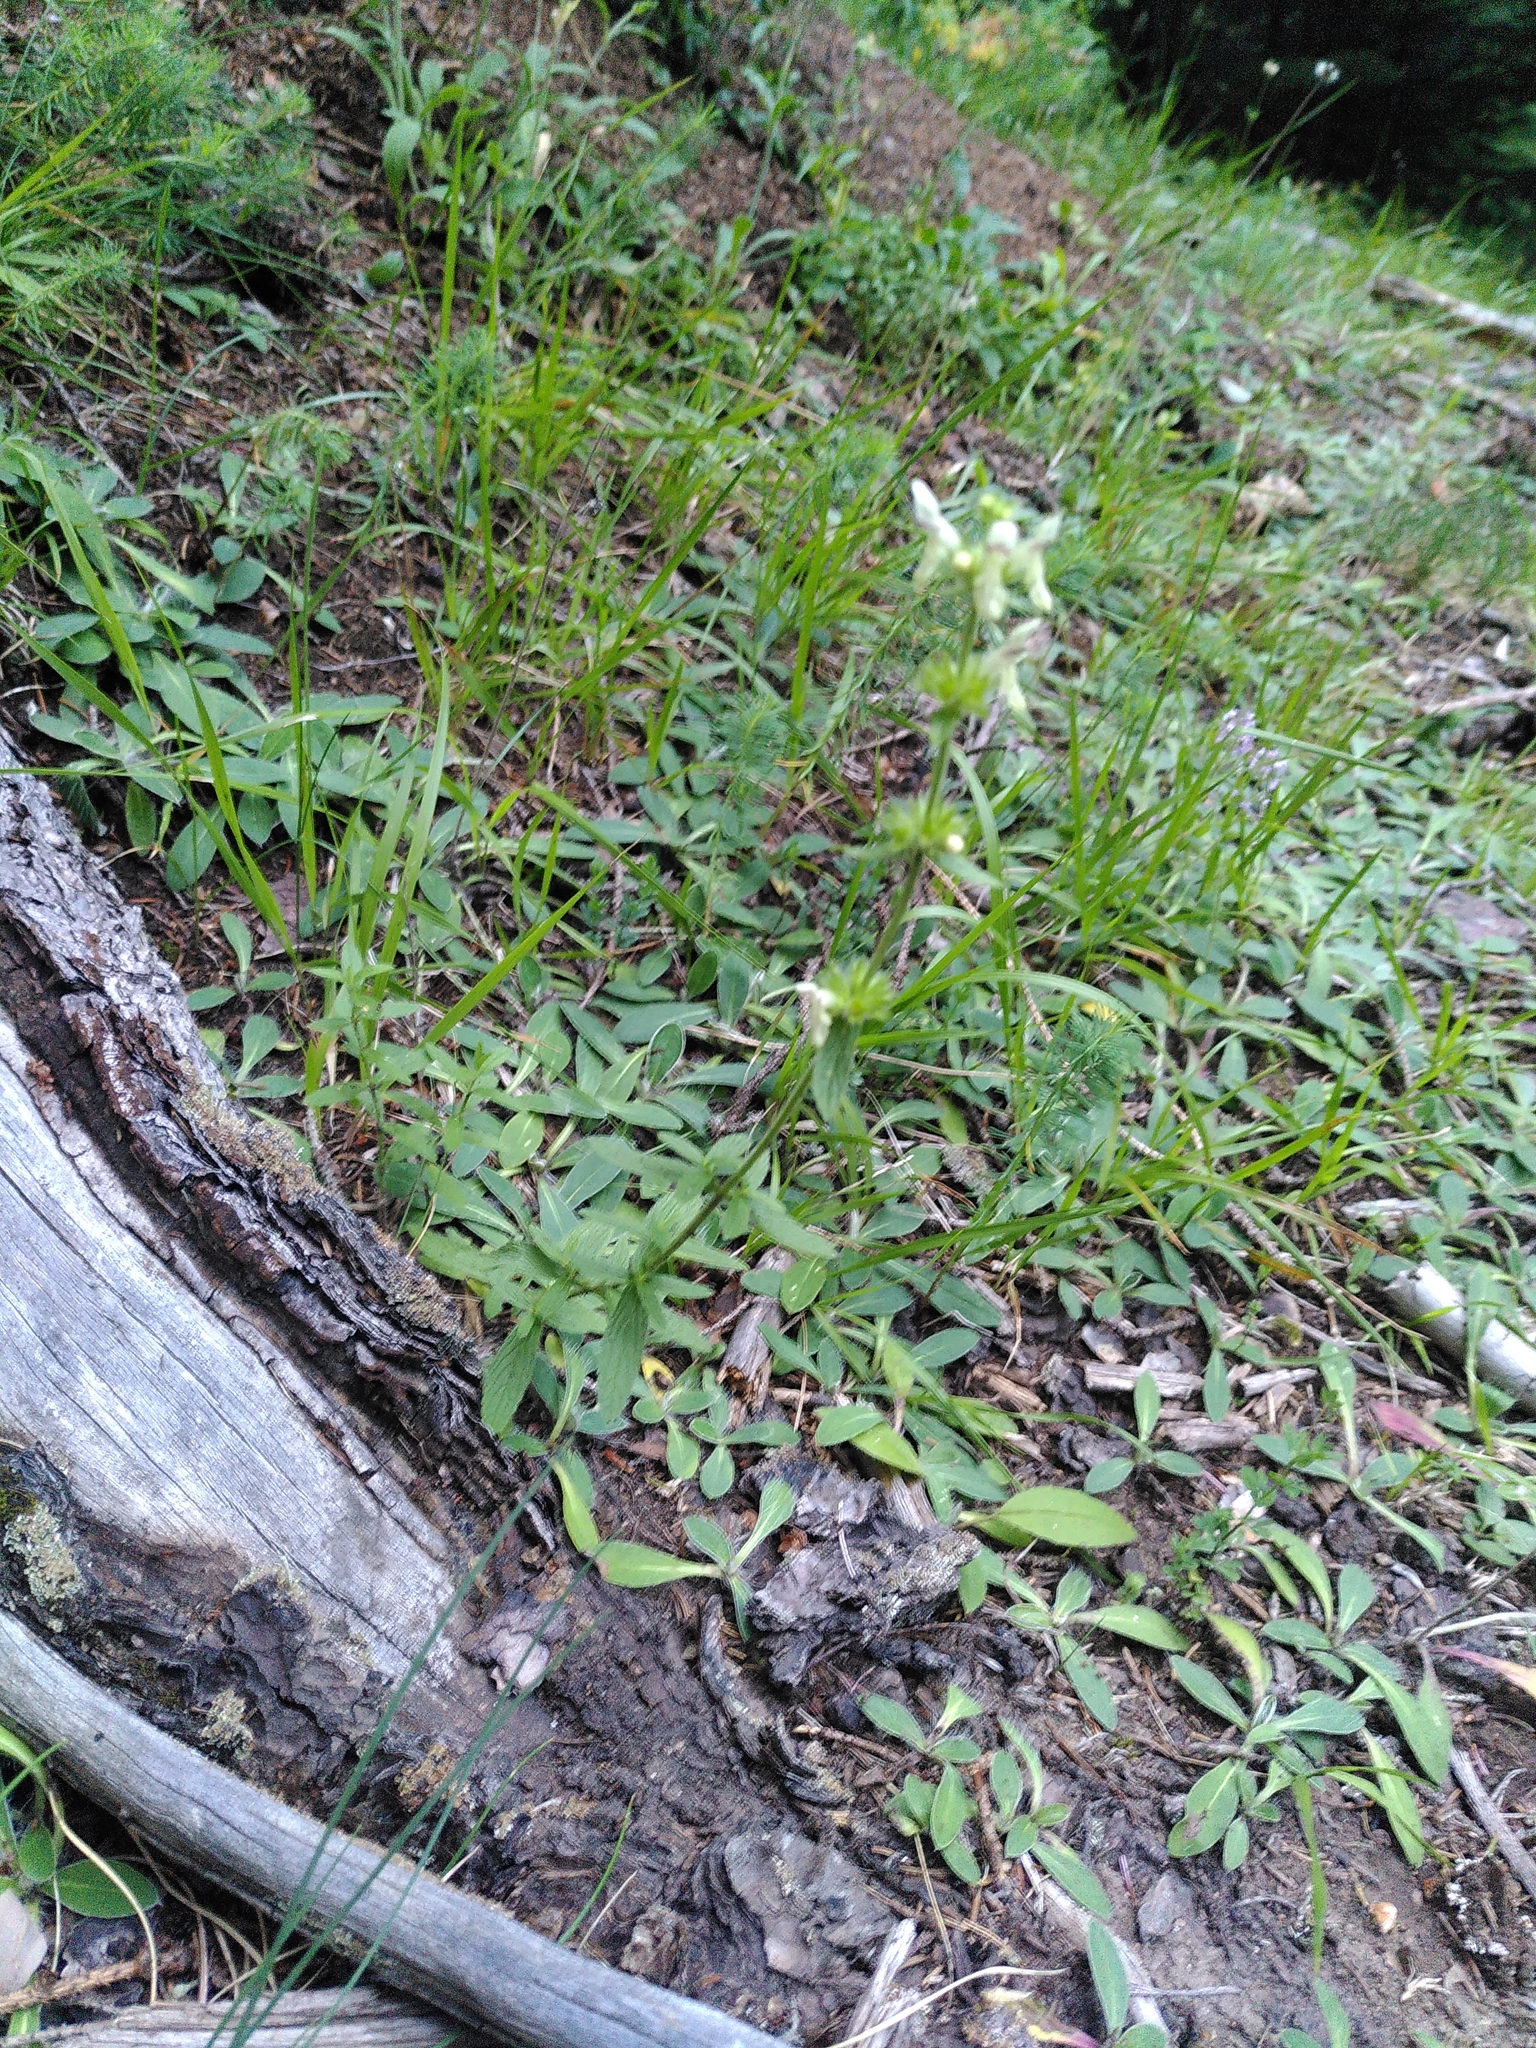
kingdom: Plantae
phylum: Tracheophyta
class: Magnoliopsida
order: Lamiales
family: Lamiaceae
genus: Stachys
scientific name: Stachys recta
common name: Perennial yellow-woundwort
